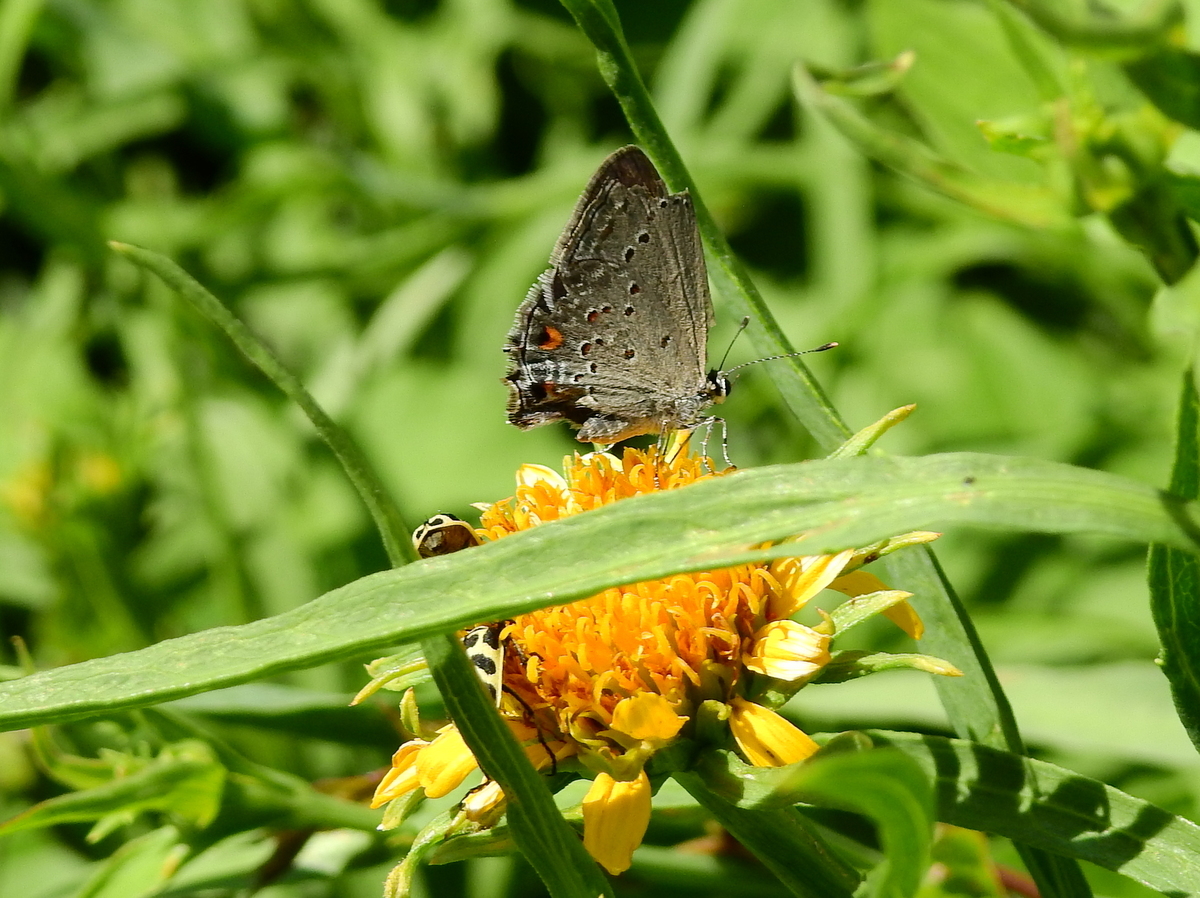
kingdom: Animalia
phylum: Arthropoda
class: Insecta
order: Lepidoptera
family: Lycaenidae
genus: Strymon
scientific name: Strymon eurytulus
